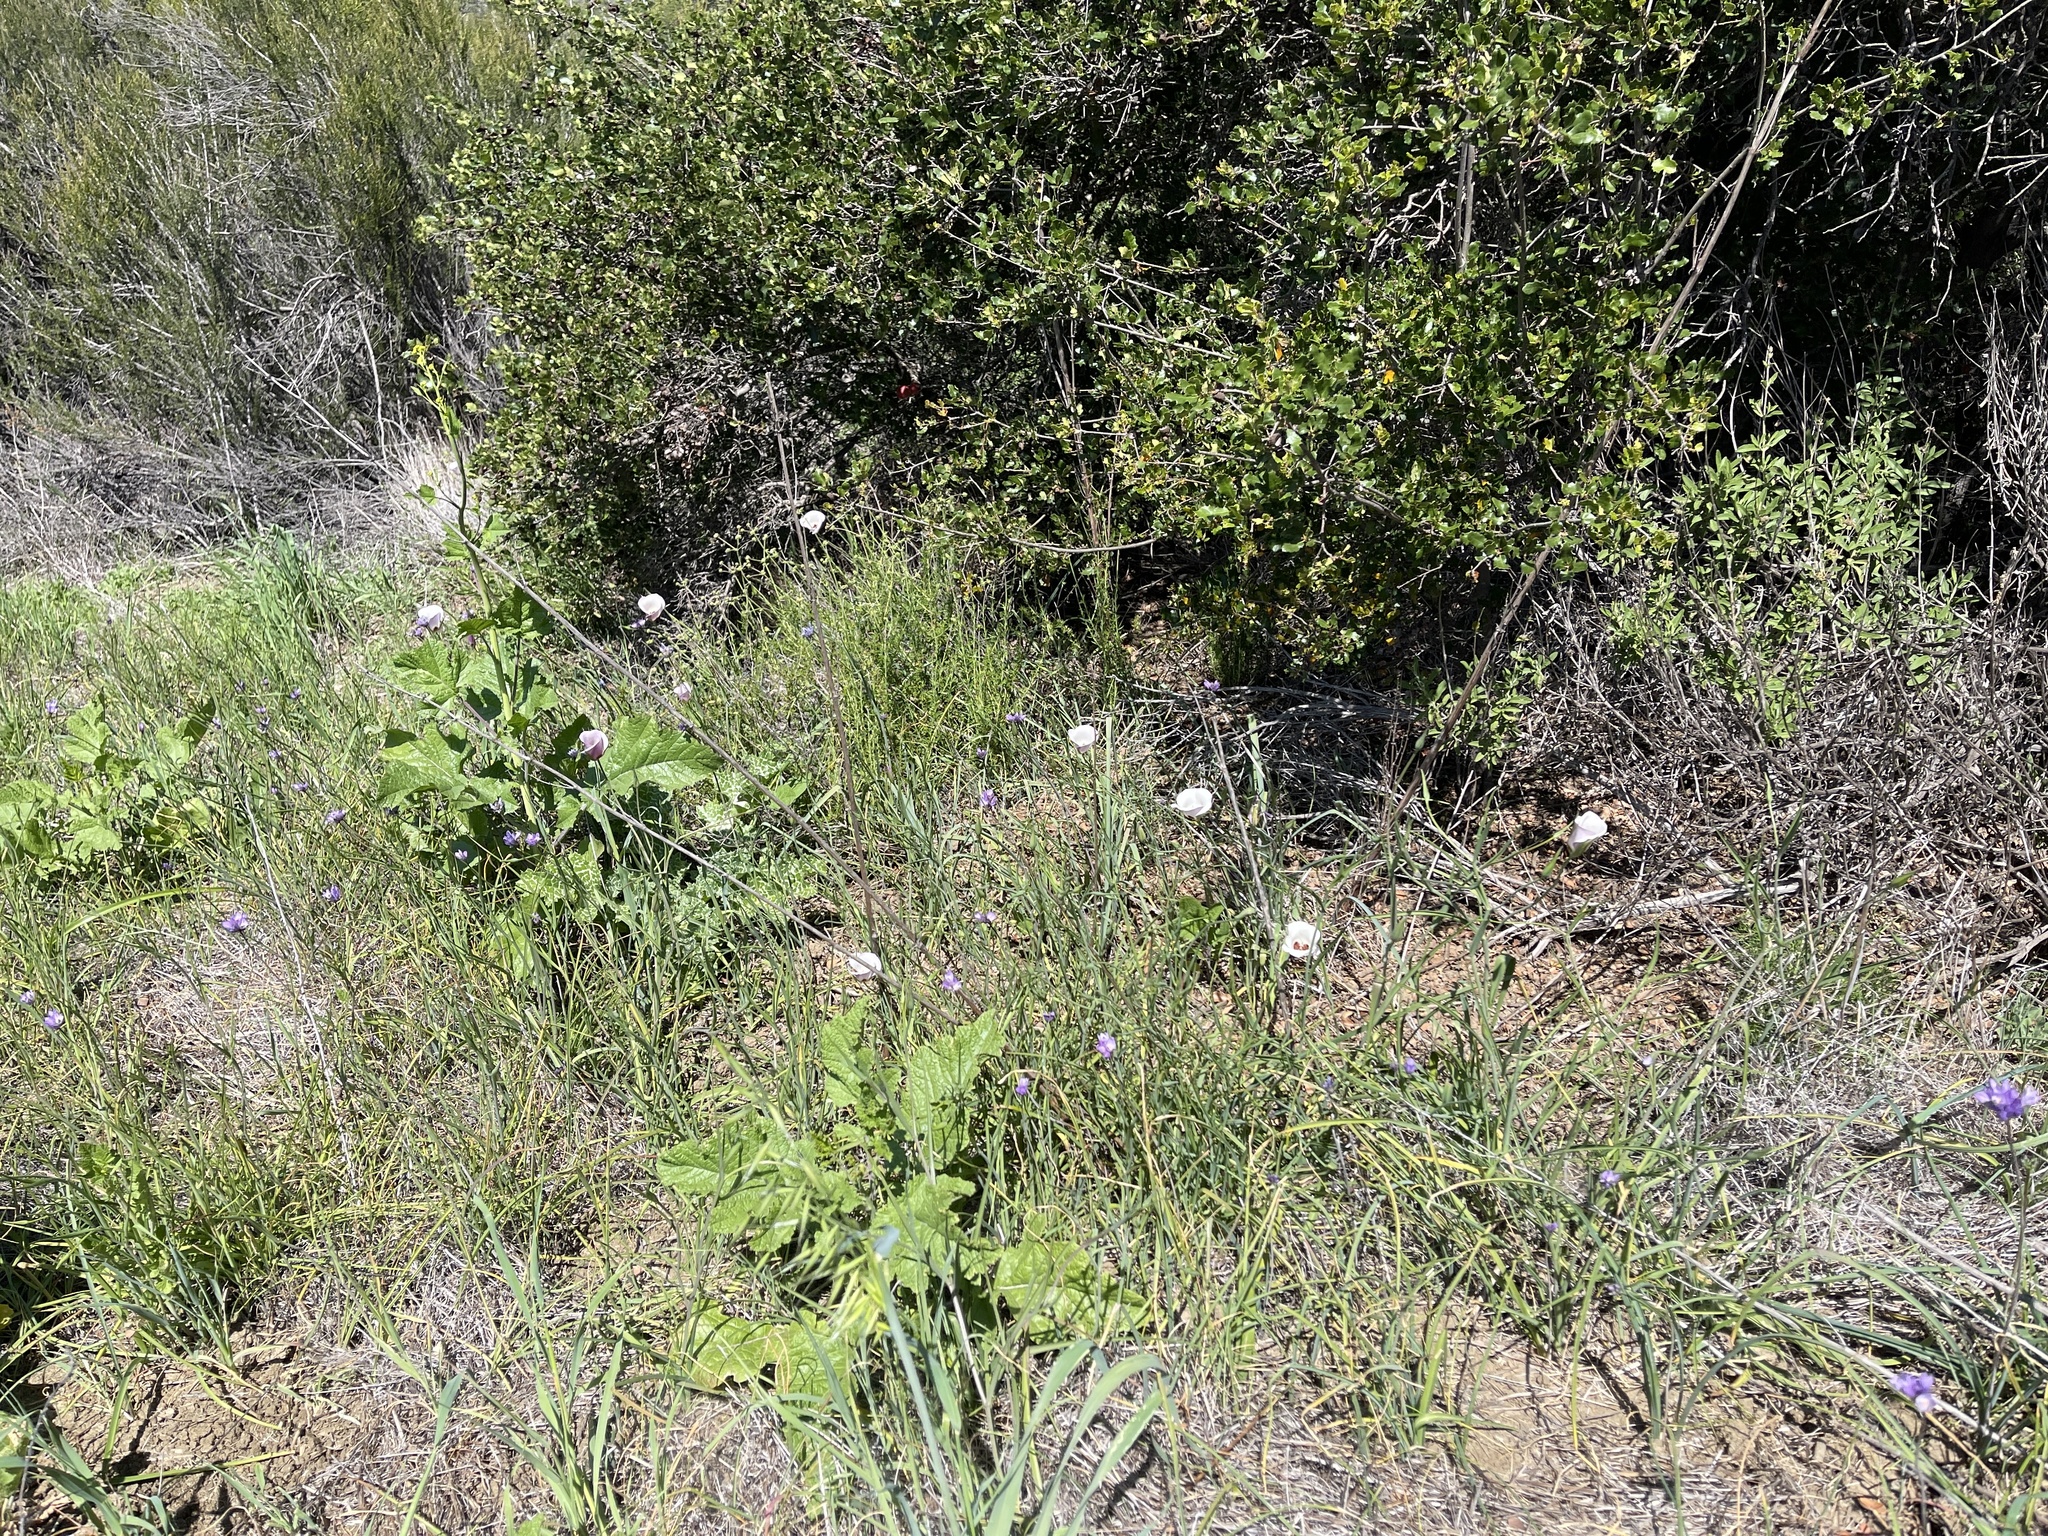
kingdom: Plantae
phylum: Tracheophyta
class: Liliopsida
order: Liliales
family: Liliaceae
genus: Calochortus
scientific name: Calochortus catalinae
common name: Catalina mariposa-lily
